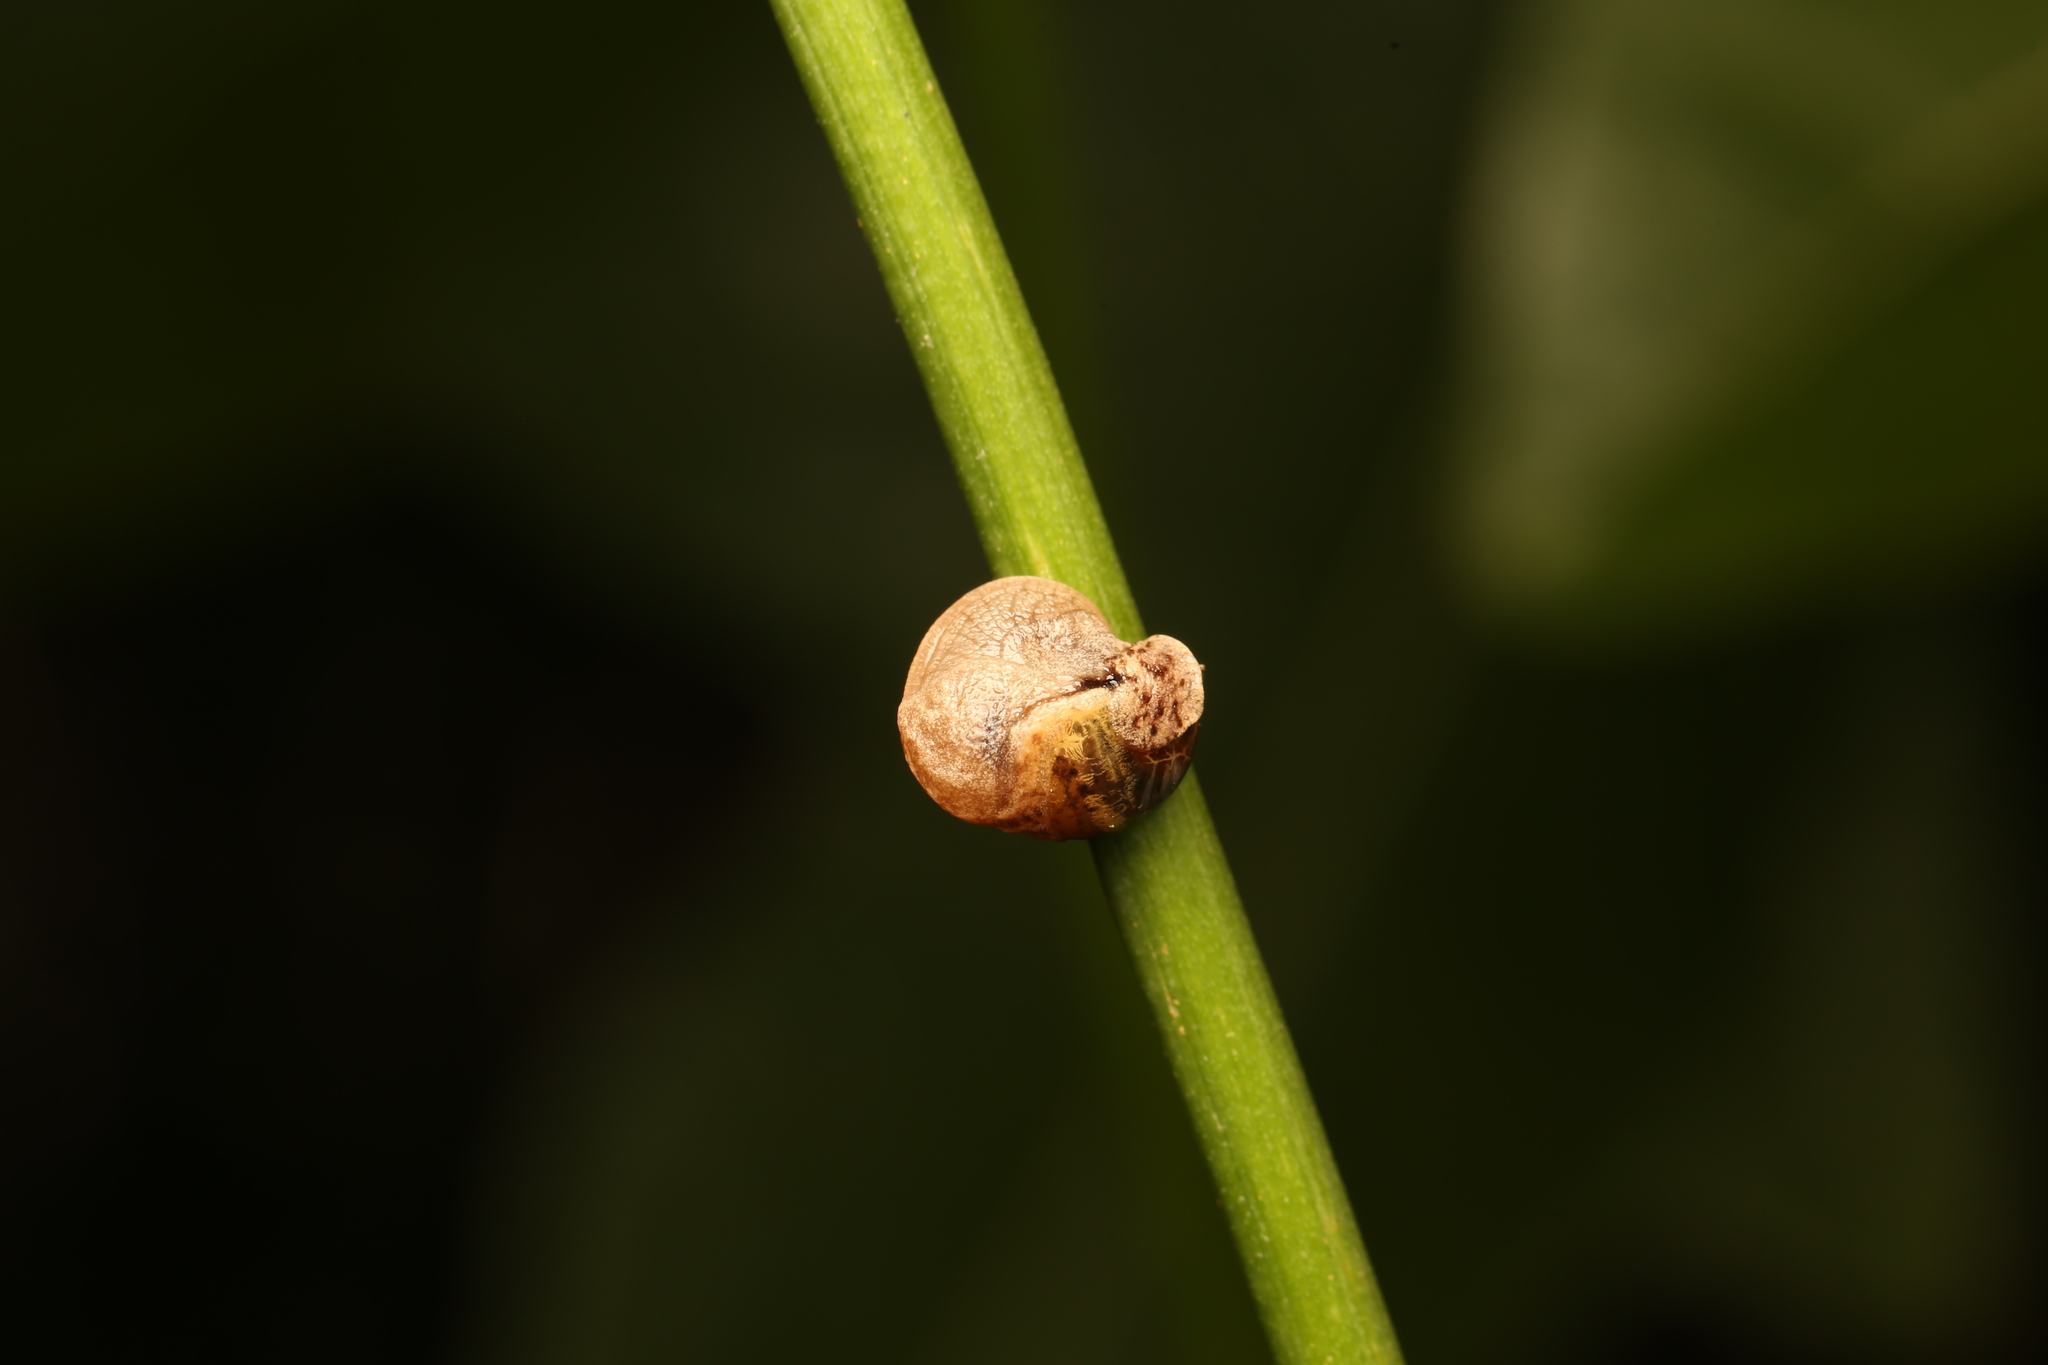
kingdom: Animalia
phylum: Mollusca
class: Gastropoda
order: Stylommatophora
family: Helicarionidae
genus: Ubiquitarion
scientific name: Ubiquitarion iridis
